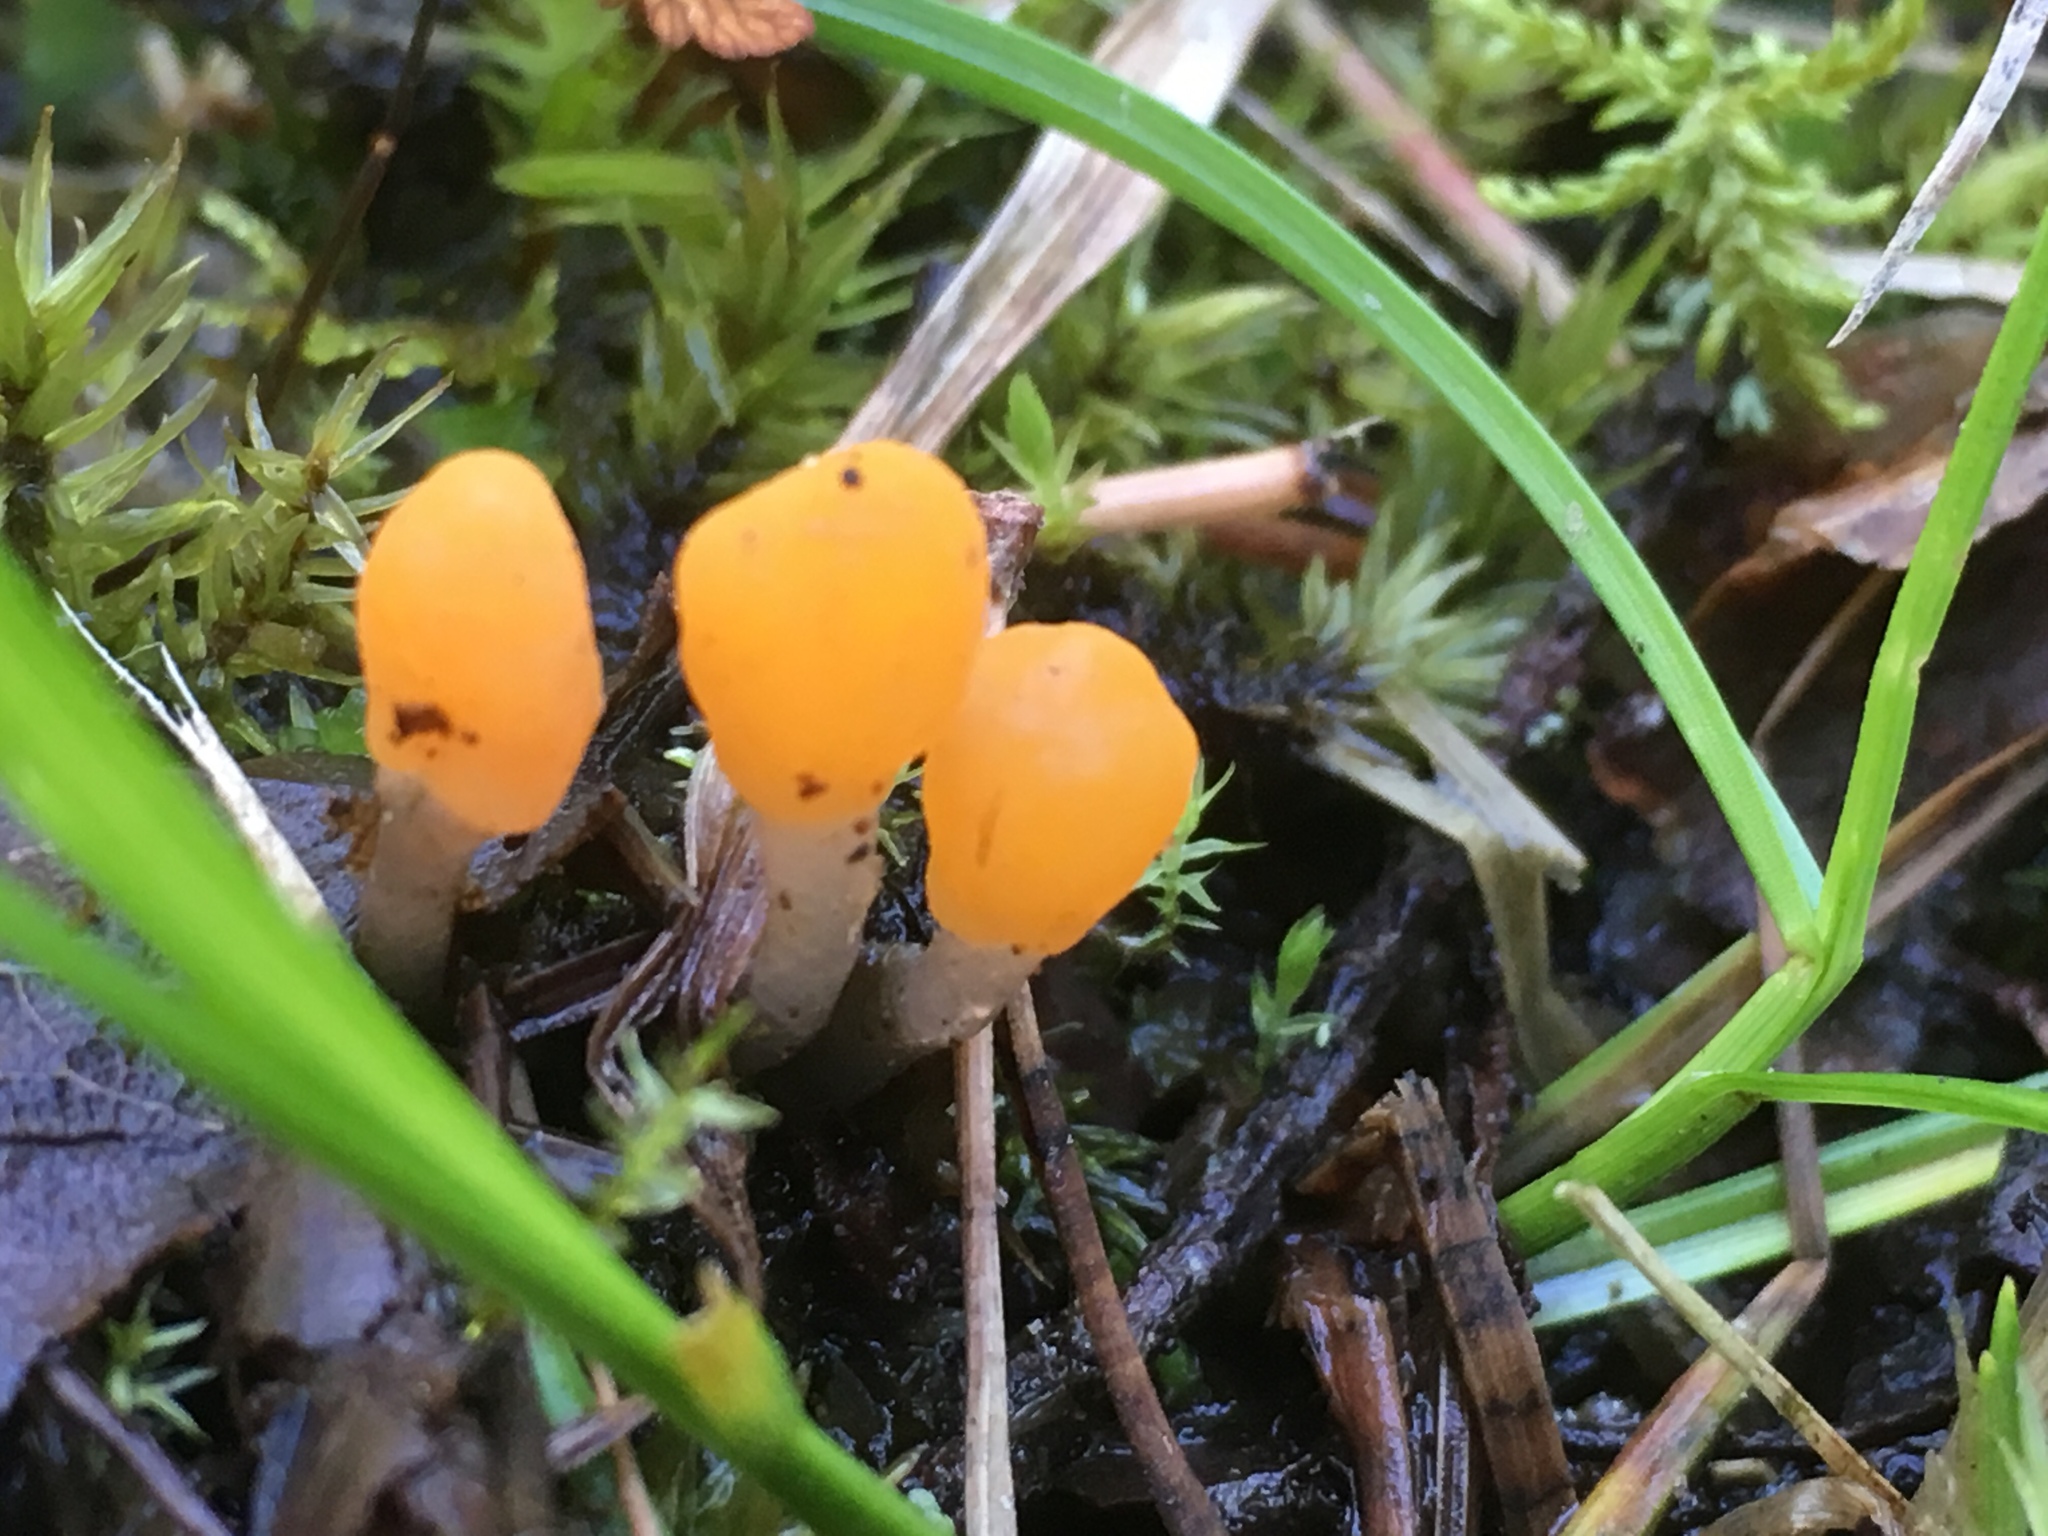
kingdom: Fungi
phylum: Ascomycota
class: Leotiomycetes
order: Helotiales
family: Cenangiaceae
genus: Mitrula
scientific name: Mitrula paludosa
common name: Bog beacon
